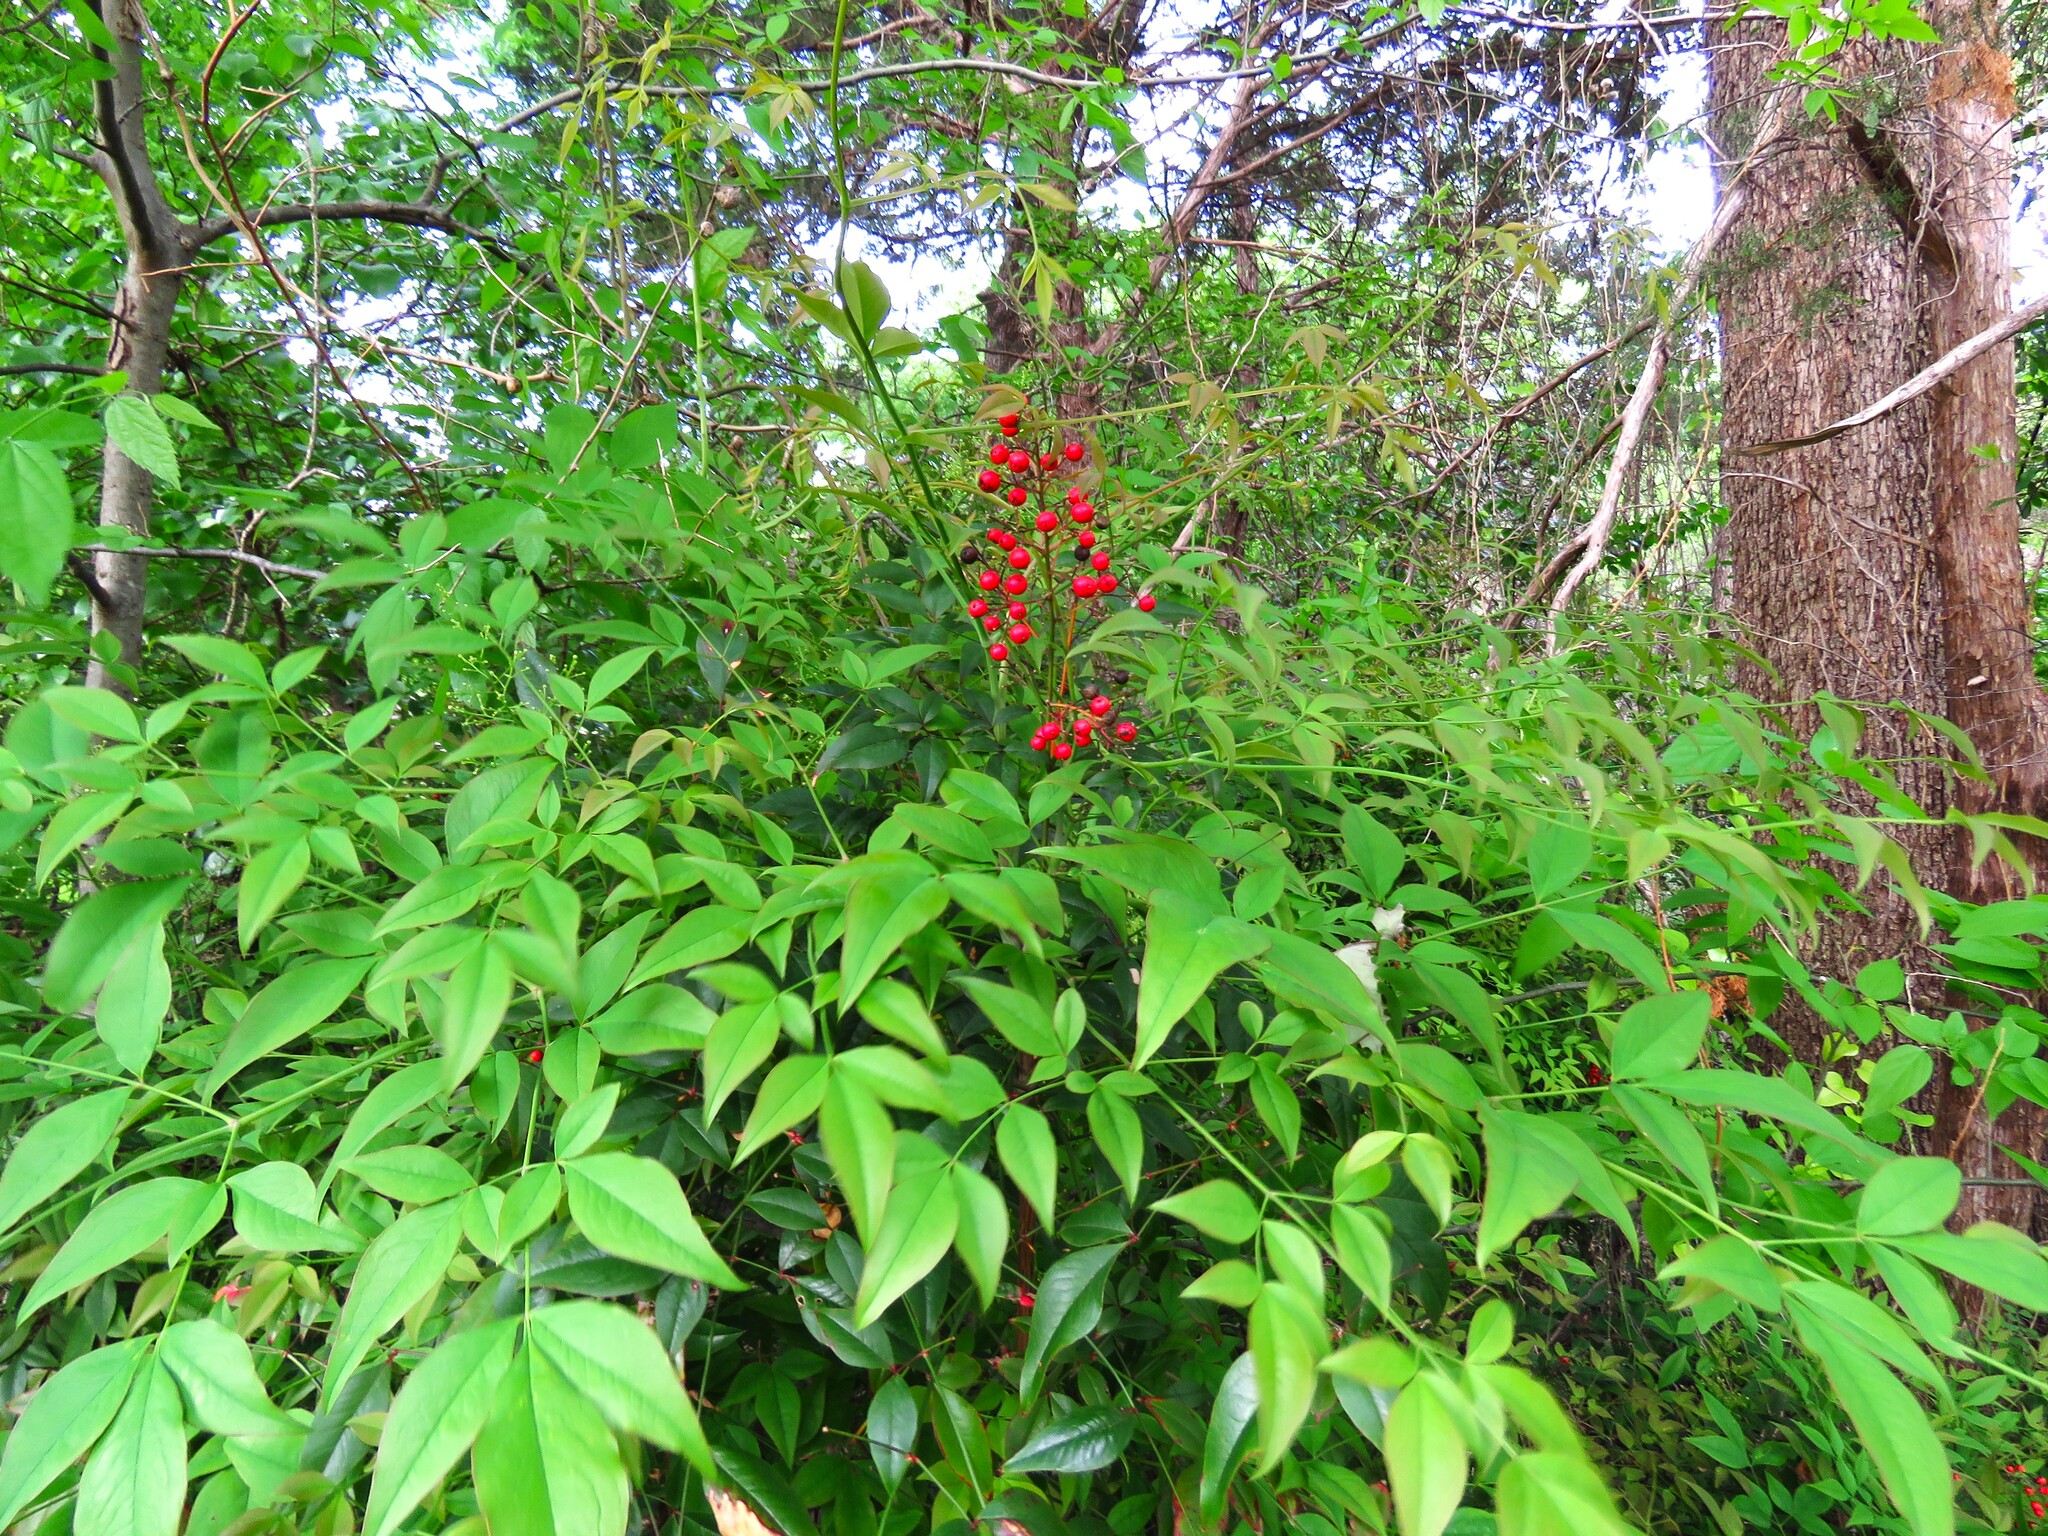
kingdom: Plantae
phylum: Tracheophyta
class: Magnoliopsida
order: Ranunculales
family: Berberidaceae
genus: Nandina
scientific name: Nandina domestica
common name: Sacred bamboo
